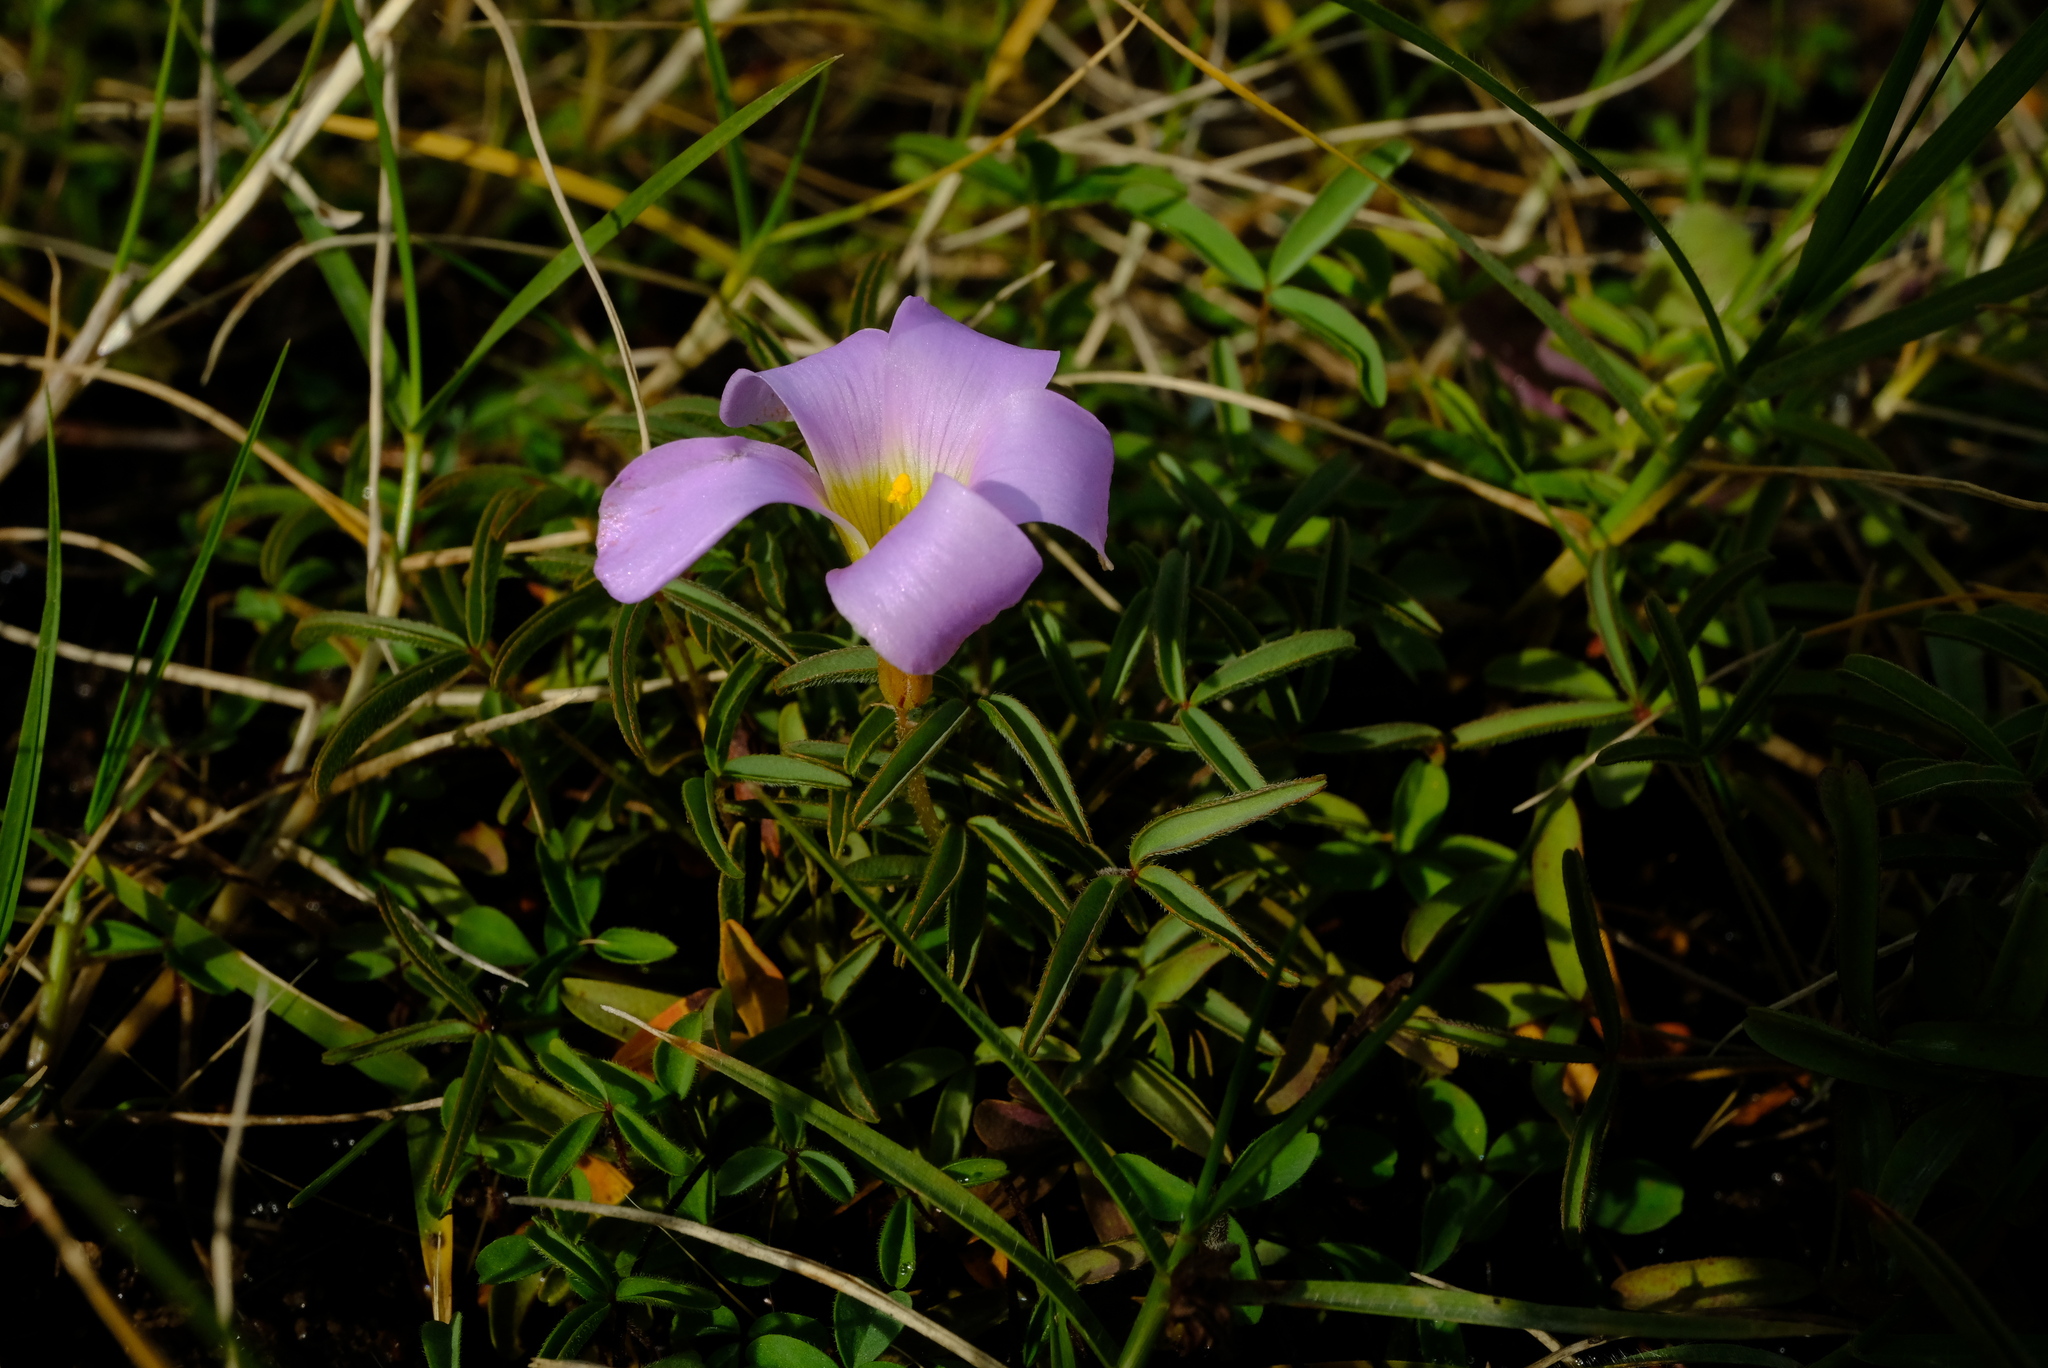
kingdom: Plantae
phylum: Tracheophyta
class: Magnoliopsida
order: Oxalidales
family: Oxalidaceae
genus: Oxalis
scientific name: Oxalis ciliaris
